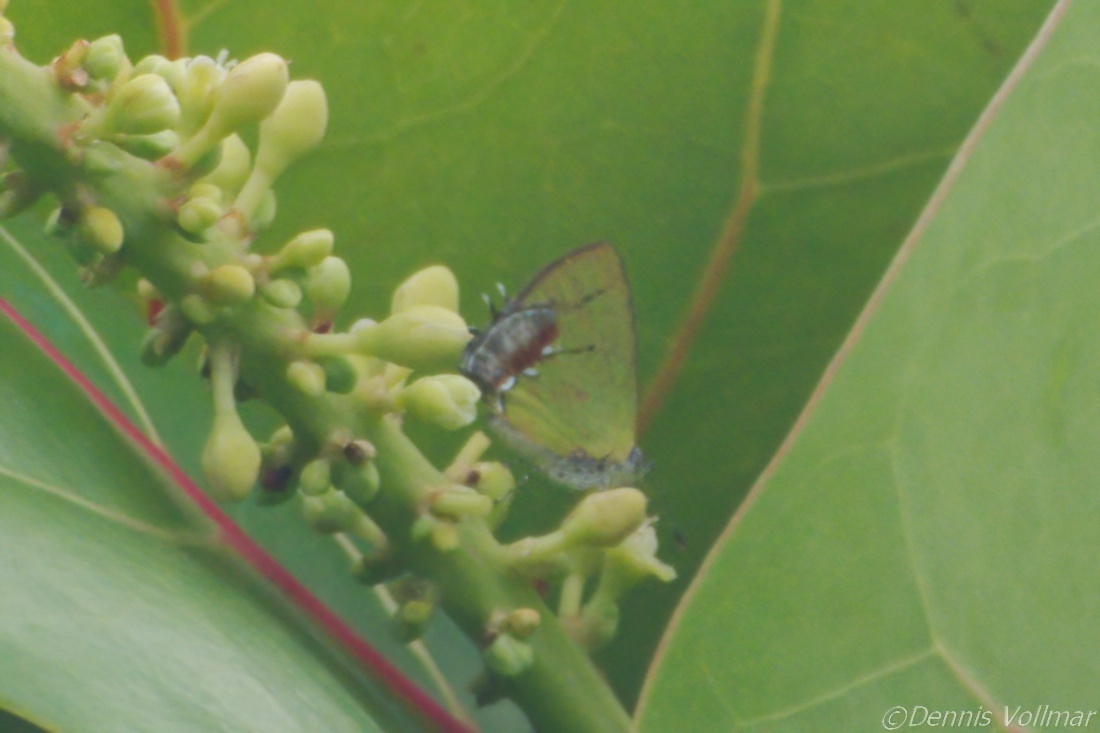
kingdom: Animalia
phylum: Arthropoda
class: Insecta
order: Lepidoptera
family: Lycaenidae
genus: Thecla
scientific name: Thecla maesites
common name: Verde azul hairstreak
